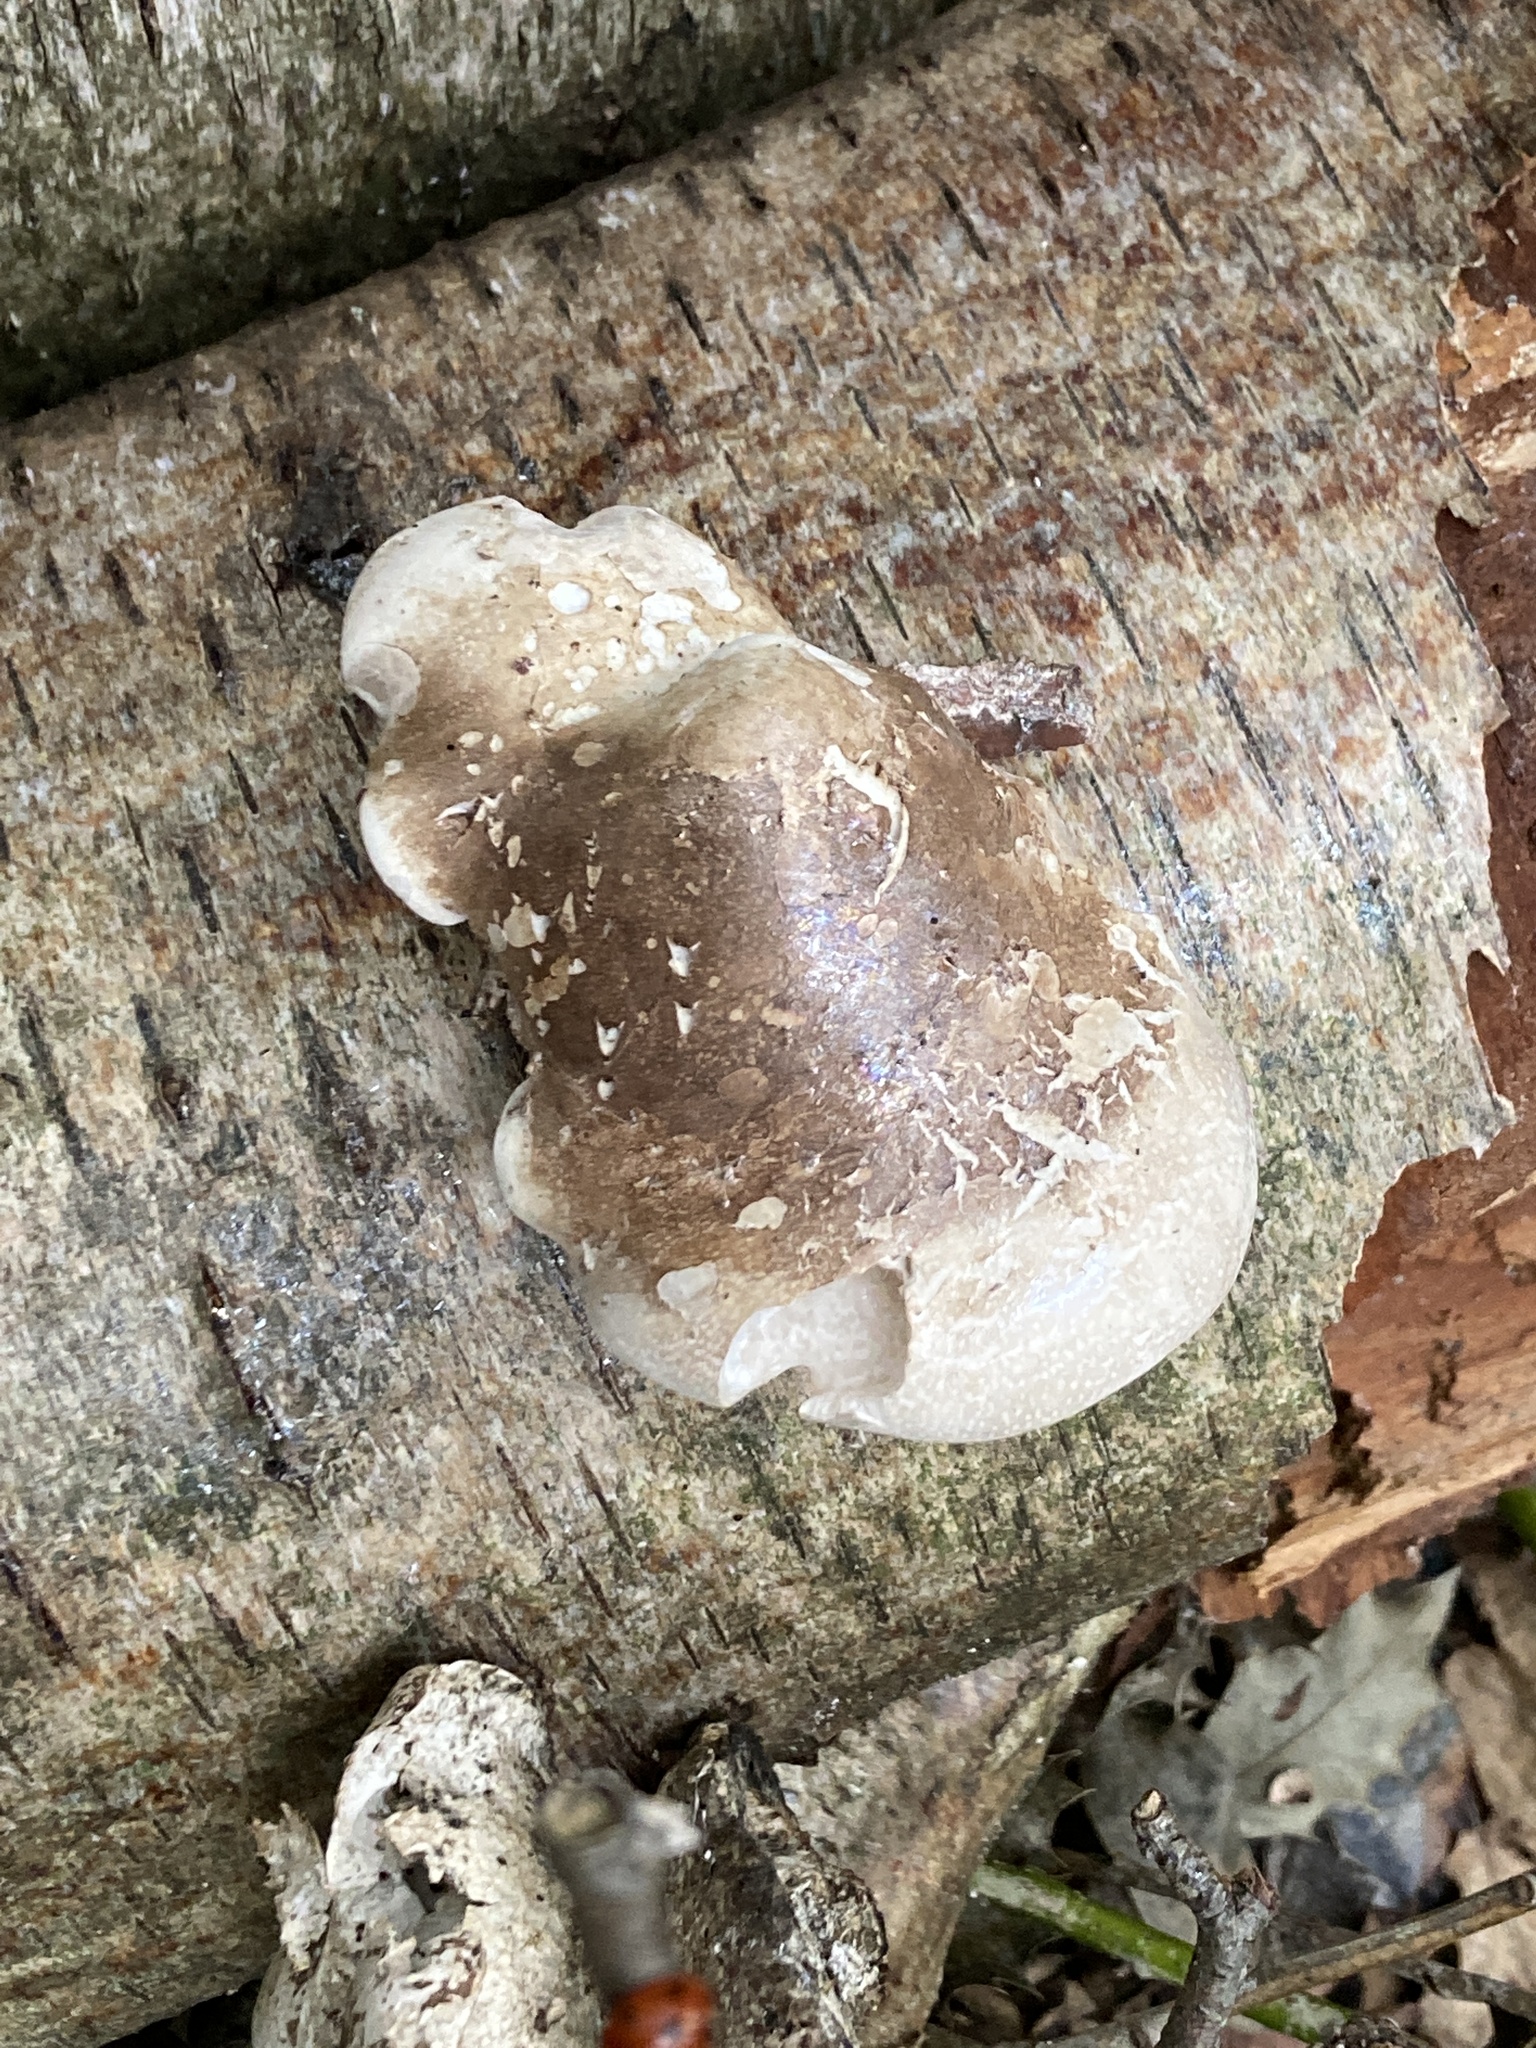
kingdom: Fungi
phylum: Basidiomycota
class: Agaricomycetes
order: Polyporales
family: Fomitopsidaceae
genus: Fomitopsis
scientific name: Fomitopsis betulina
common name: Birch polypore
